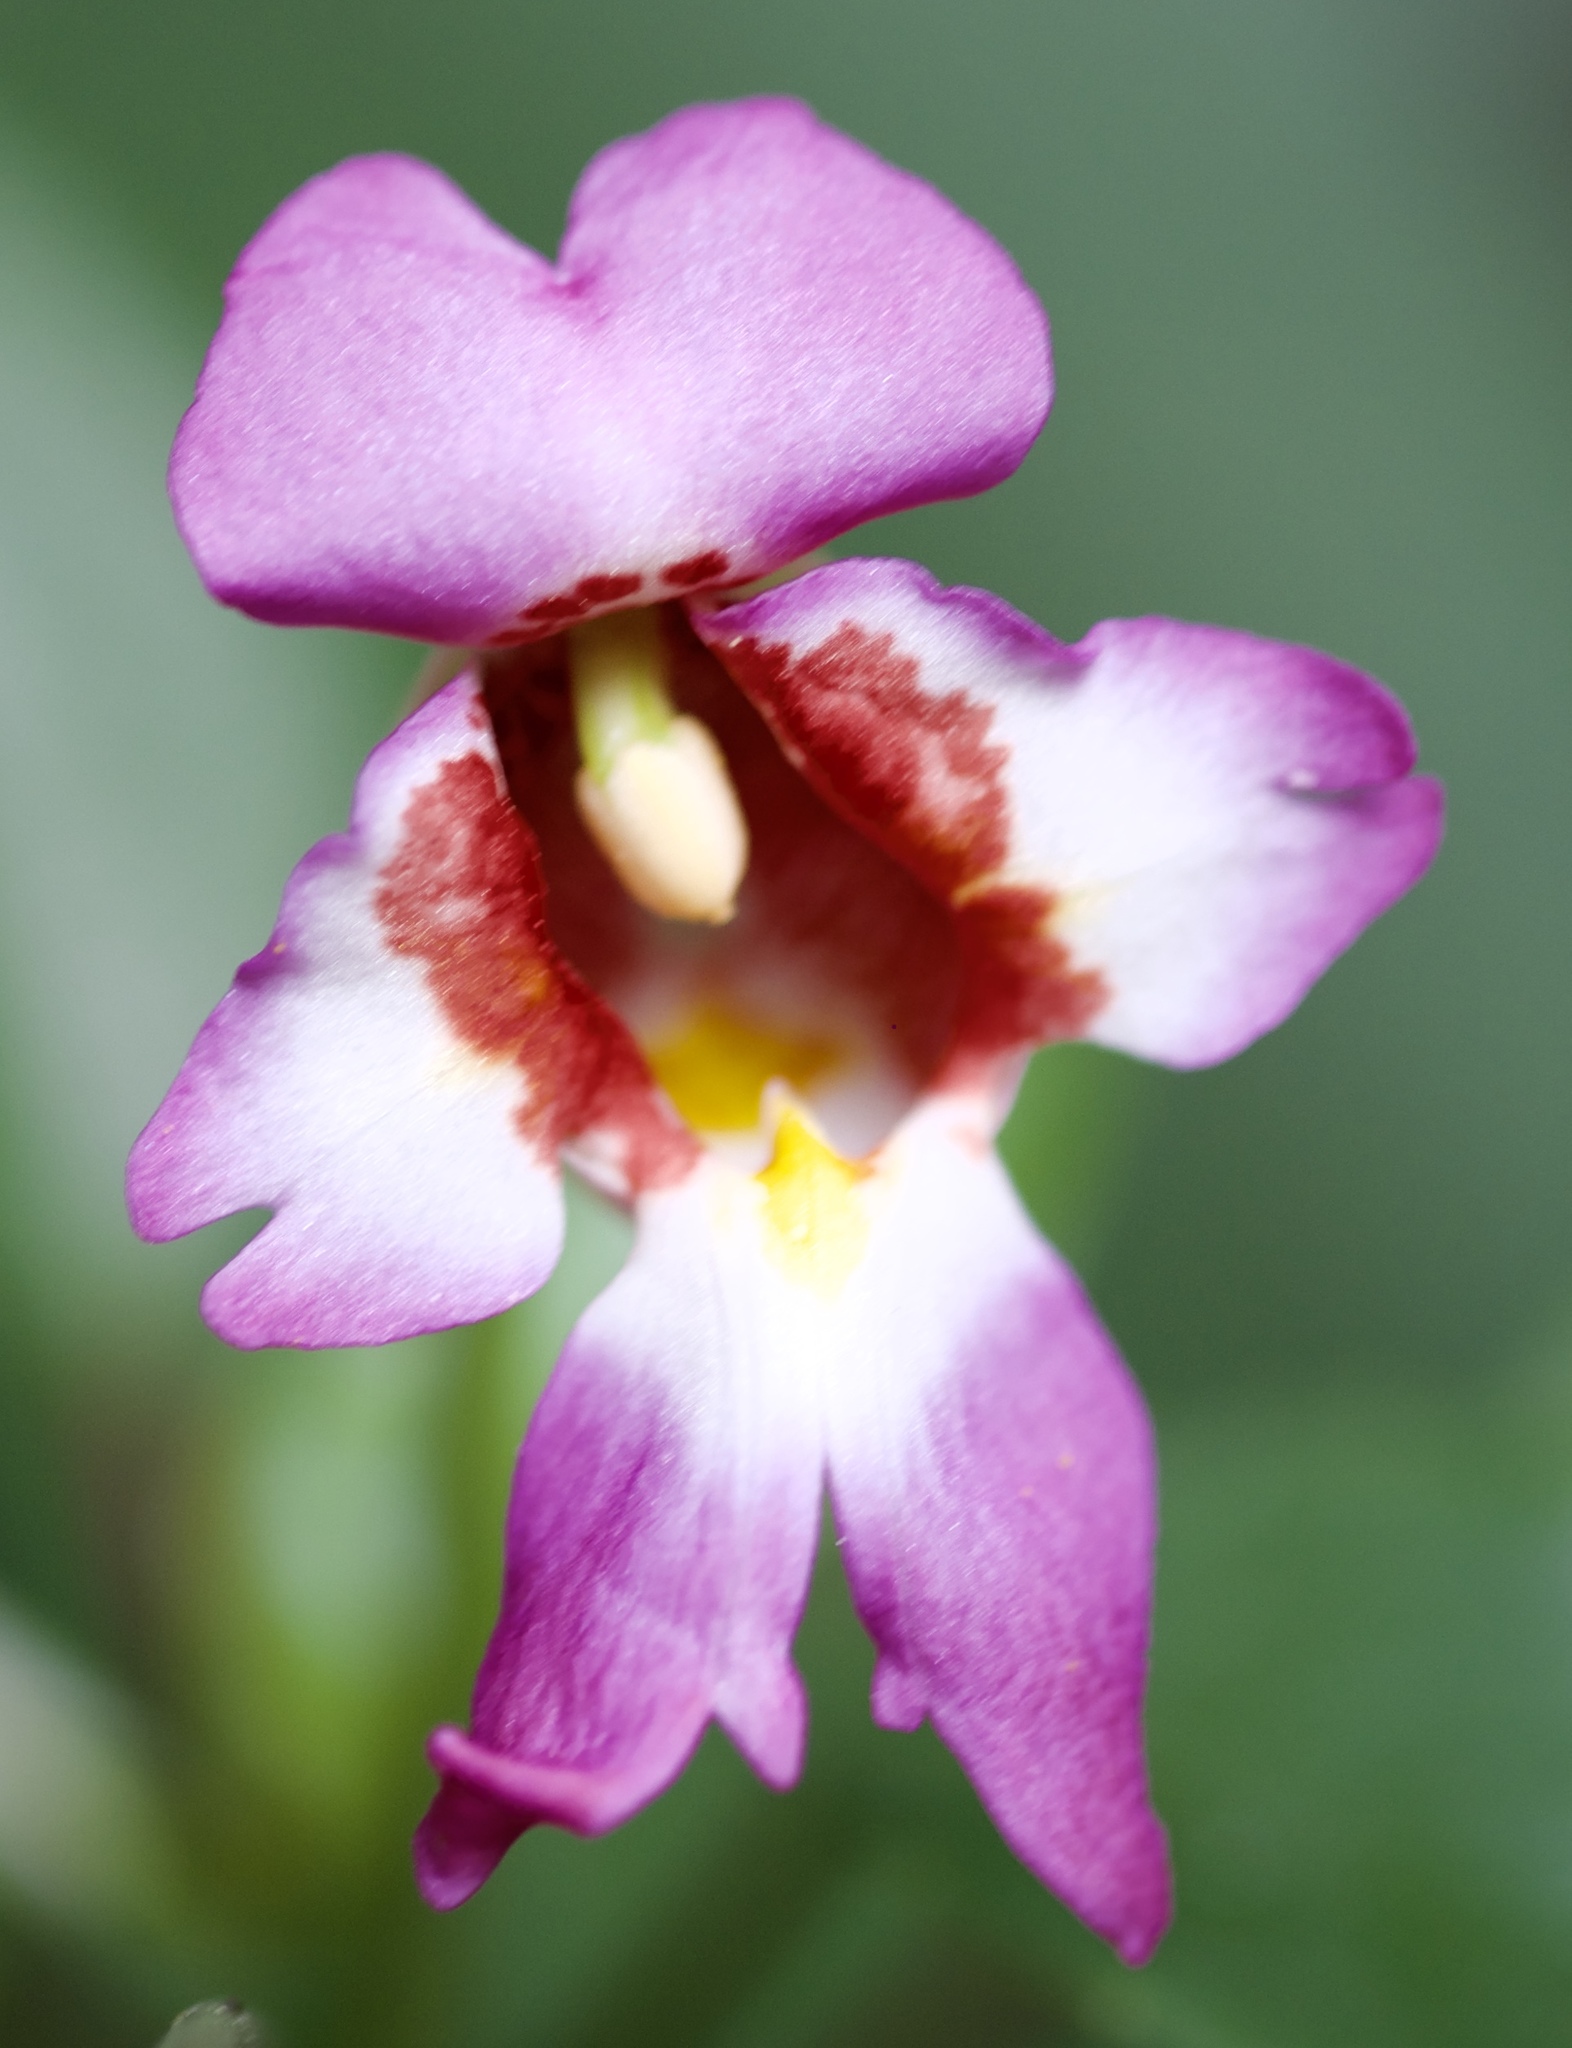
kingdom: Plantae
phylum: Tracheophyta
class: Magnoliopsida
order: Ericales
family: Balsaminaceae
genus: Impatiens
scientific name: Impatiens bonii
